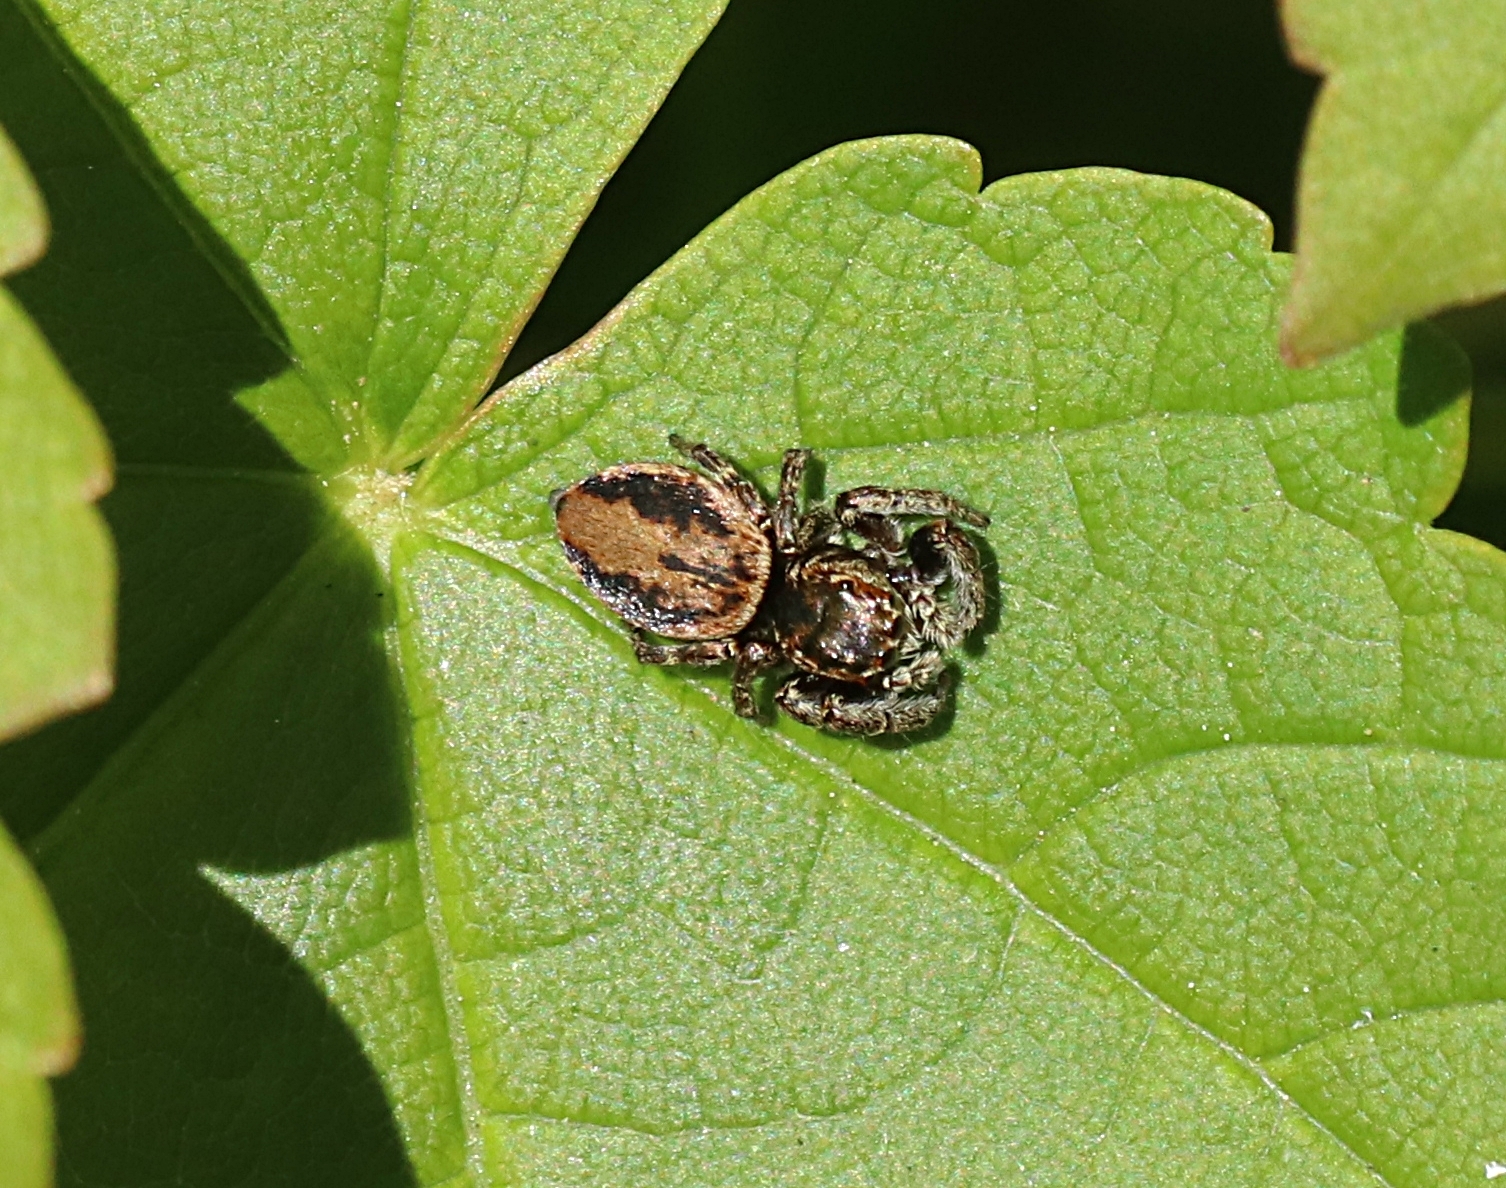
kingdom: Animalia
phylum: Arthropoda
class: Arachnida
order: Araneae
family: Salticidae
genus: Evarcha
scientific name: Evarcha falcata
